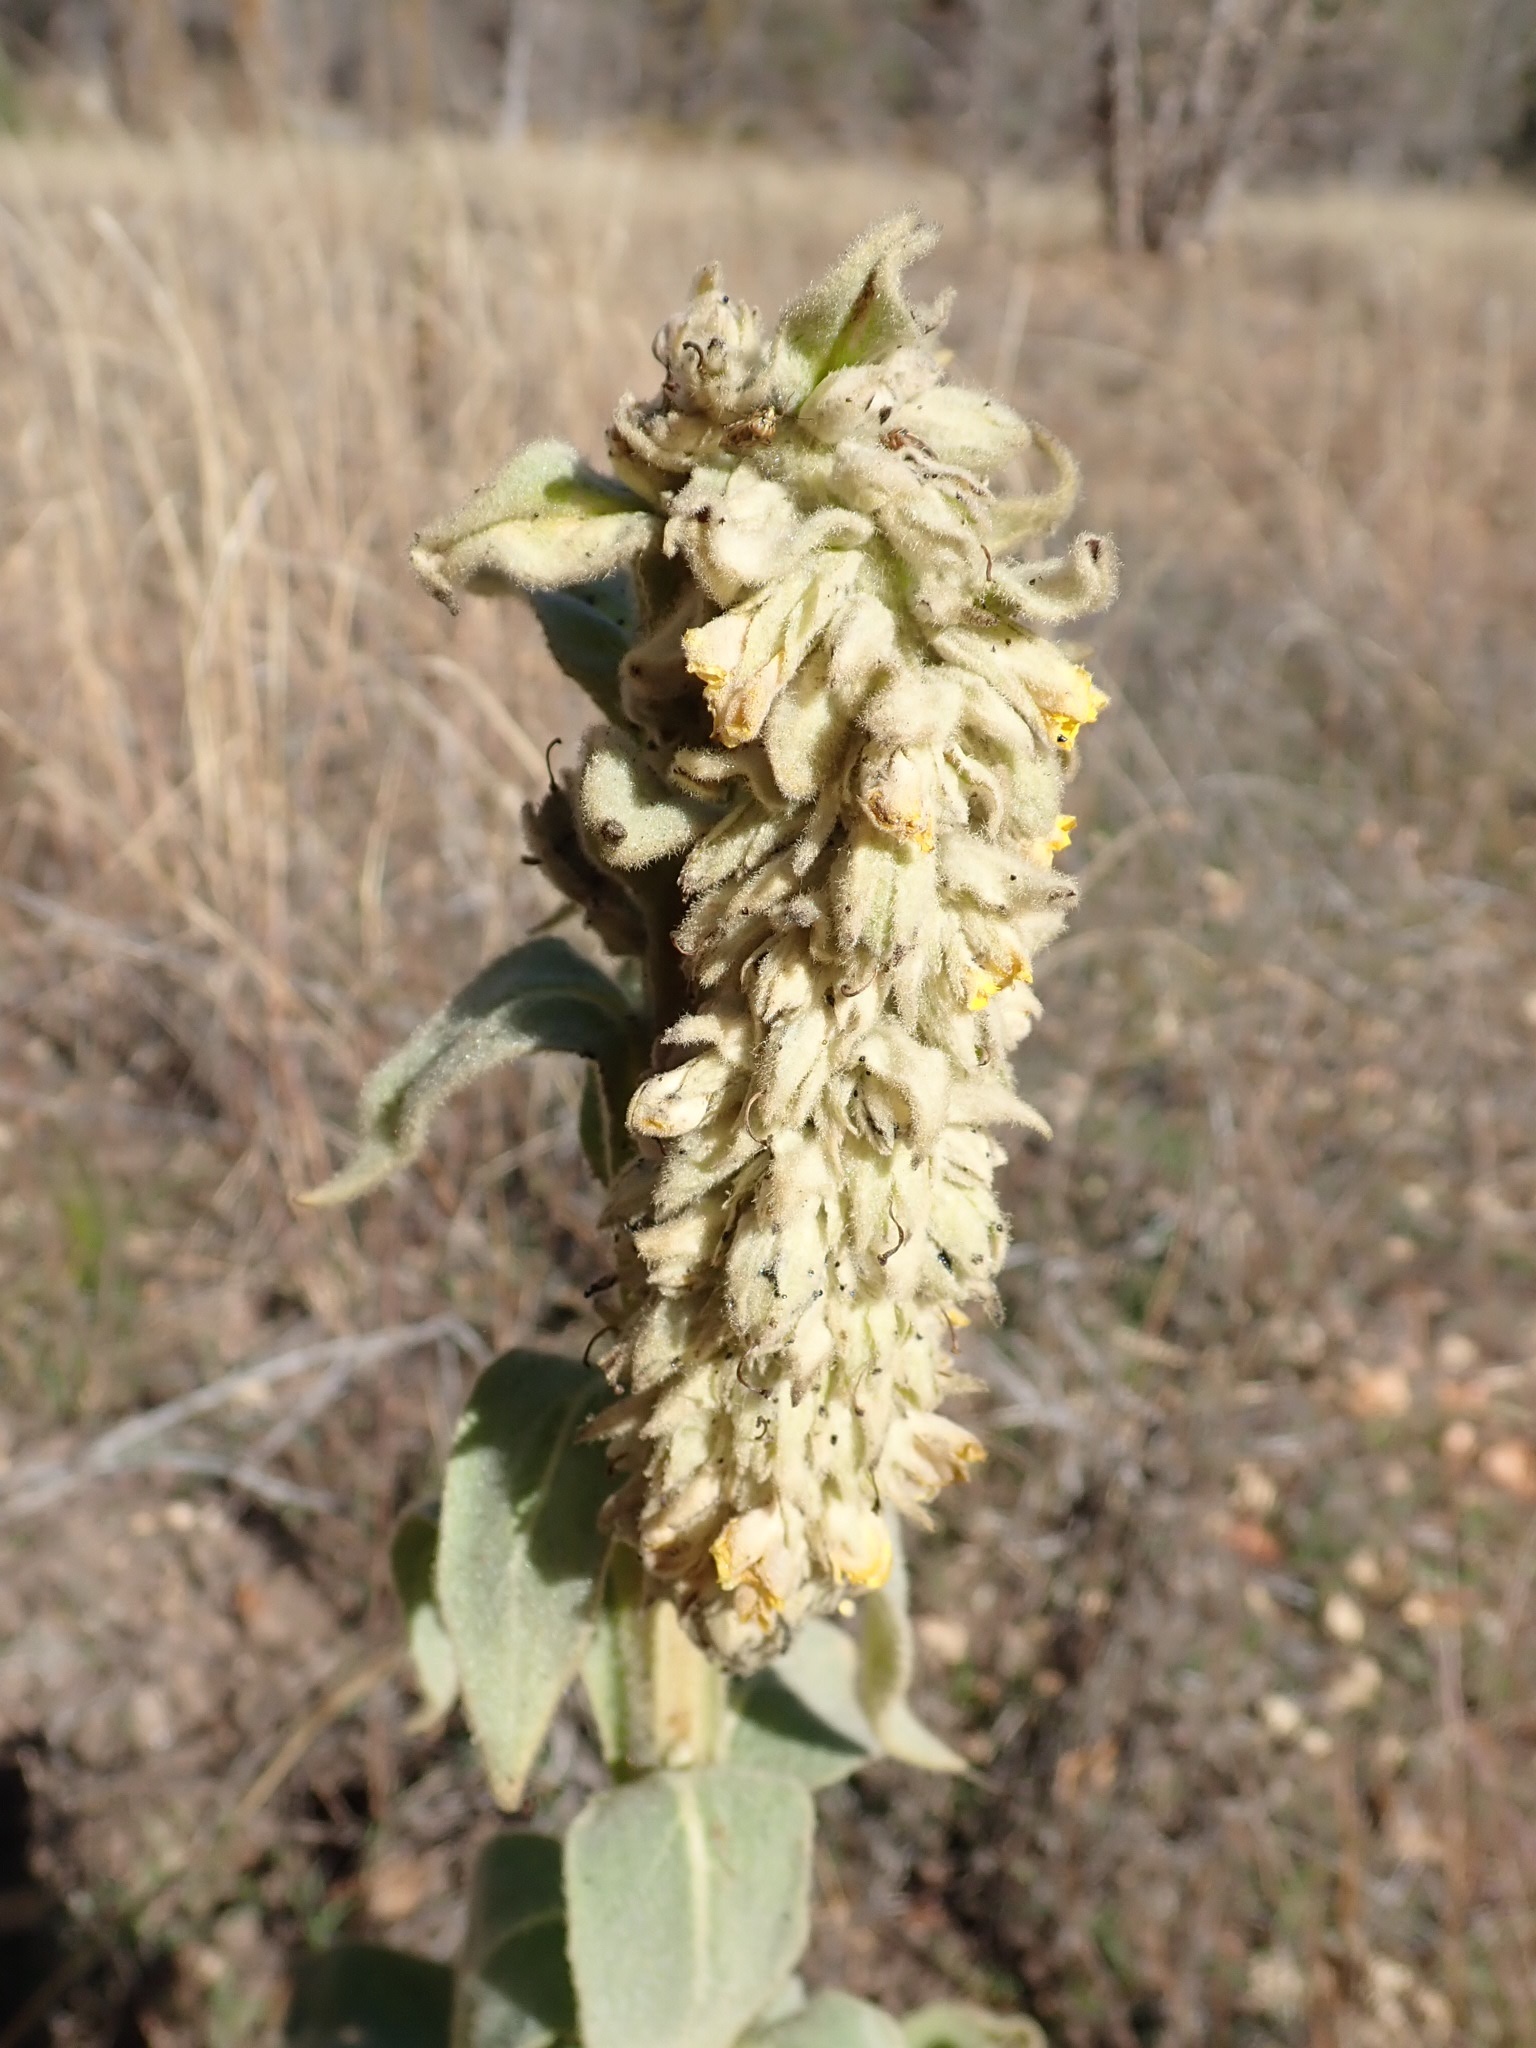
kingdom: Plantae
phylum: Tracheophyta
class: Magnoliopsida
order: Lamiales
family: Scrophulariaceae
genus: Verbascum
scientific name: Verbascum thapsus
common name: Common mullein
